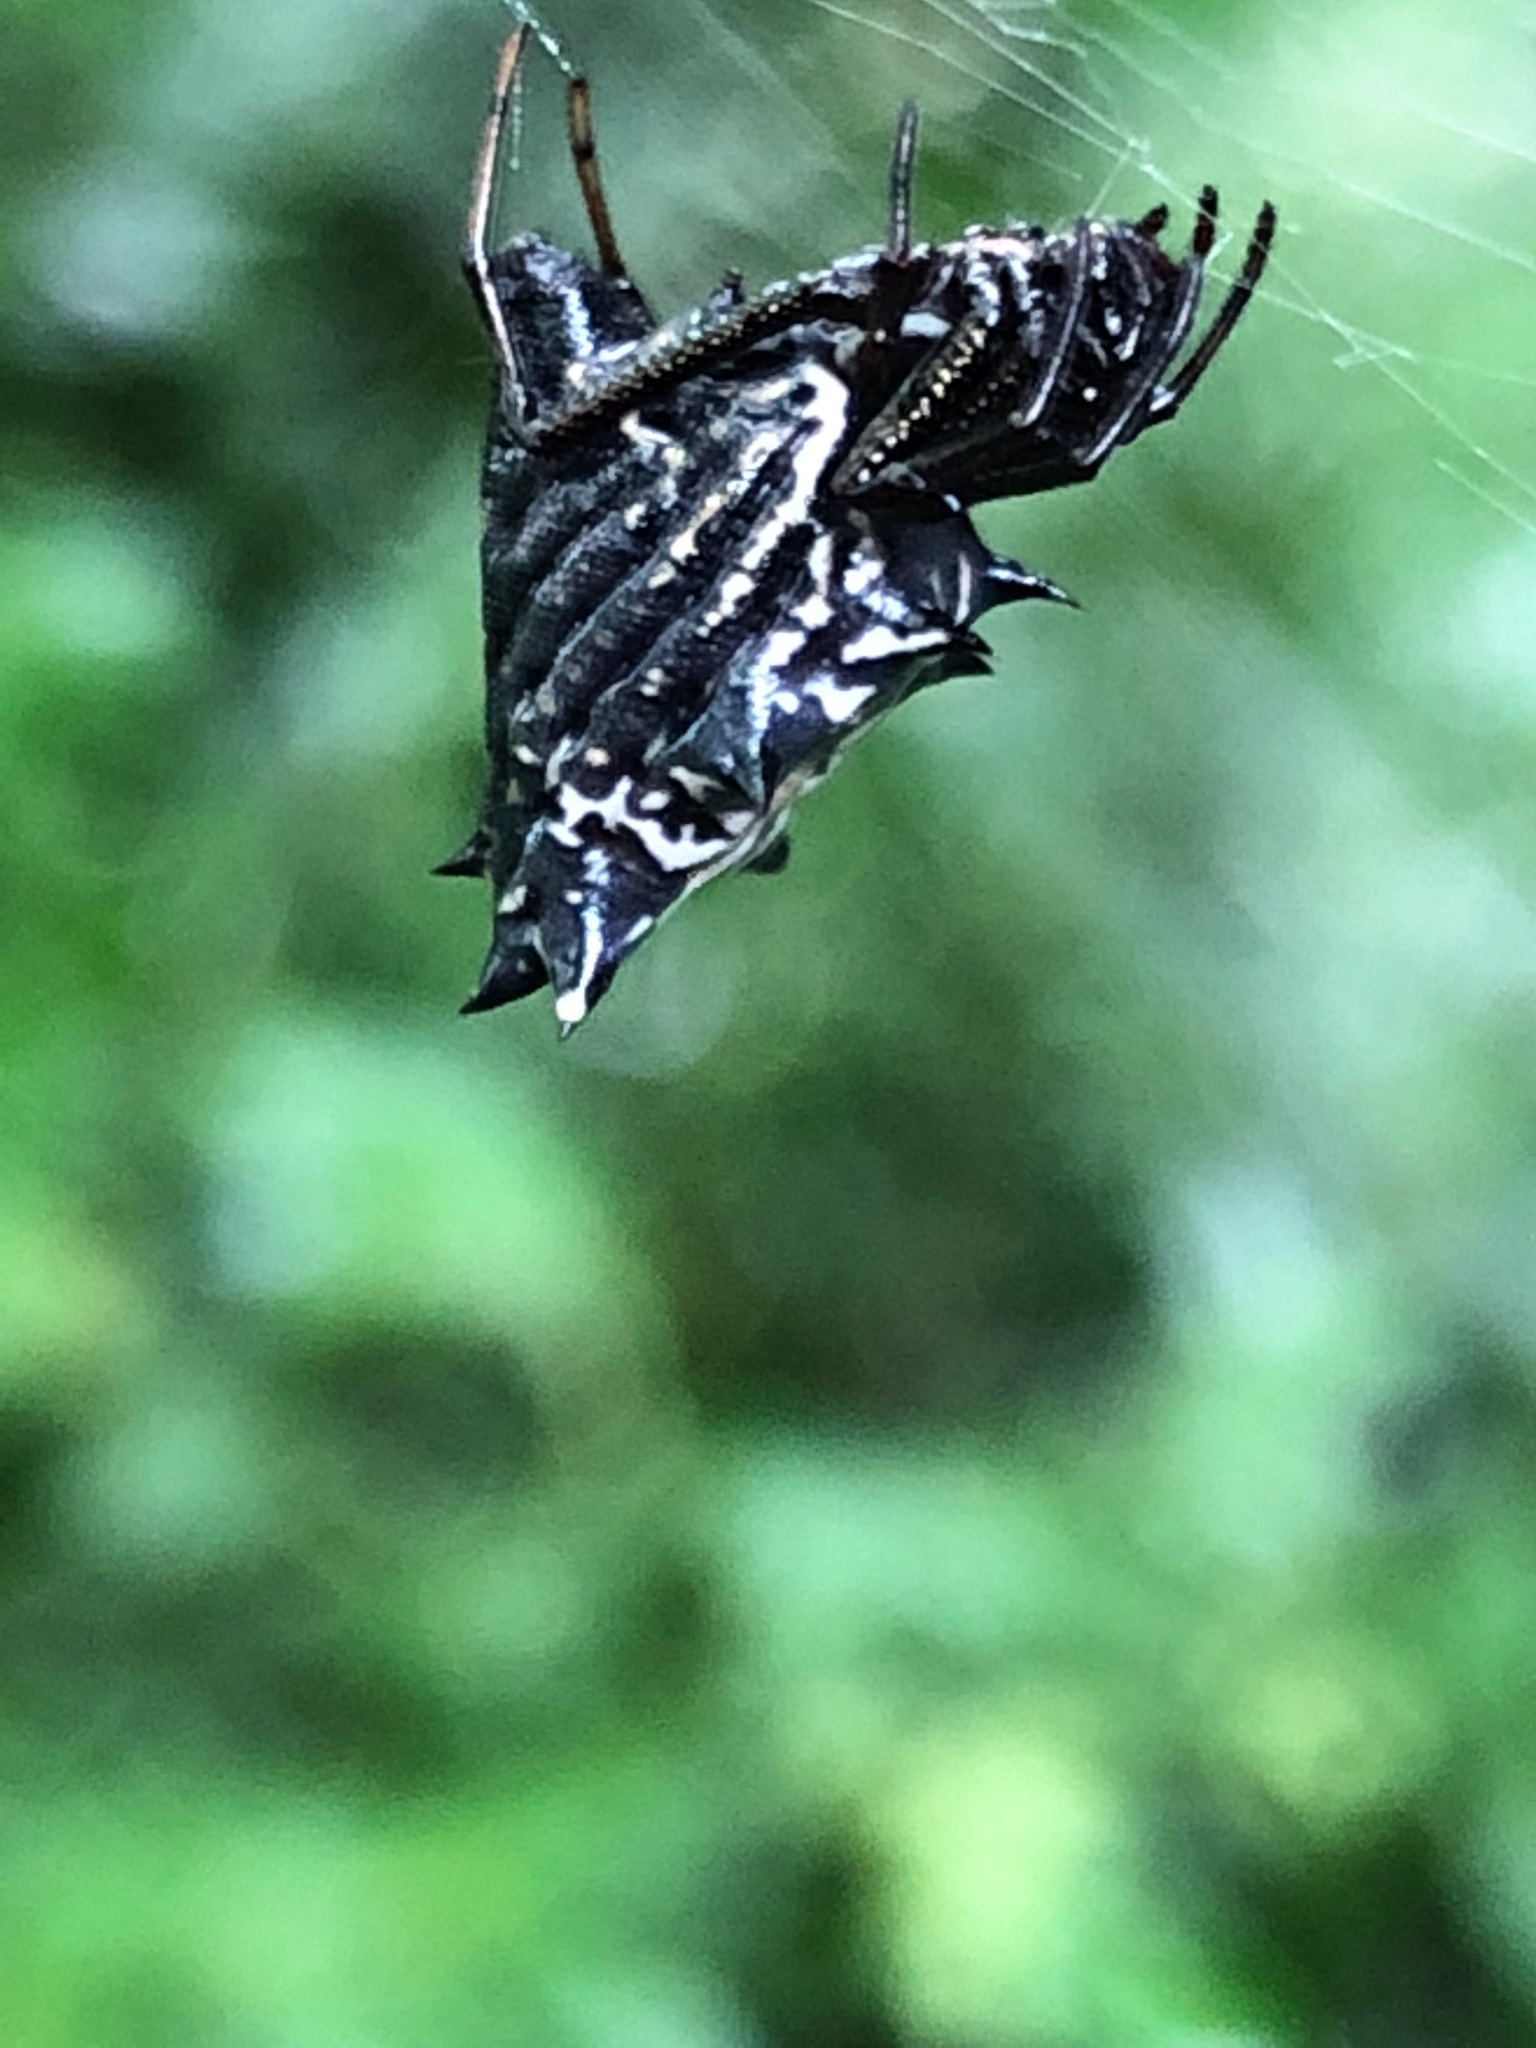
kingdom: Animalia
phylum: Arthropoda
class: Arachnida
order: Araneae
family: Araneidae
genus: Micrathena
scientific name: Micrathena gracilis
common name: Orb weavers
